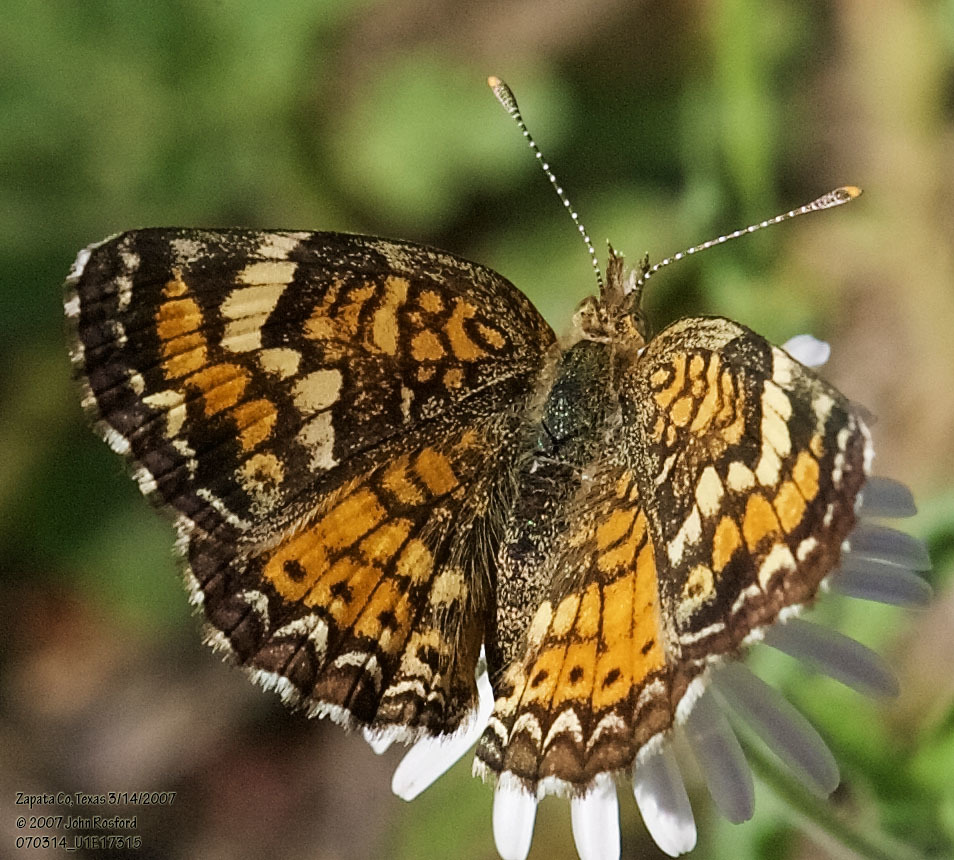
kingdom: Animalia
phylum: Arthropoda
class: Insecta
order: Lepidoptera
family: Nymphalidae
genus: Phyciodes
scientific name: Phyciodes phaon
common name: Phaon crescent
